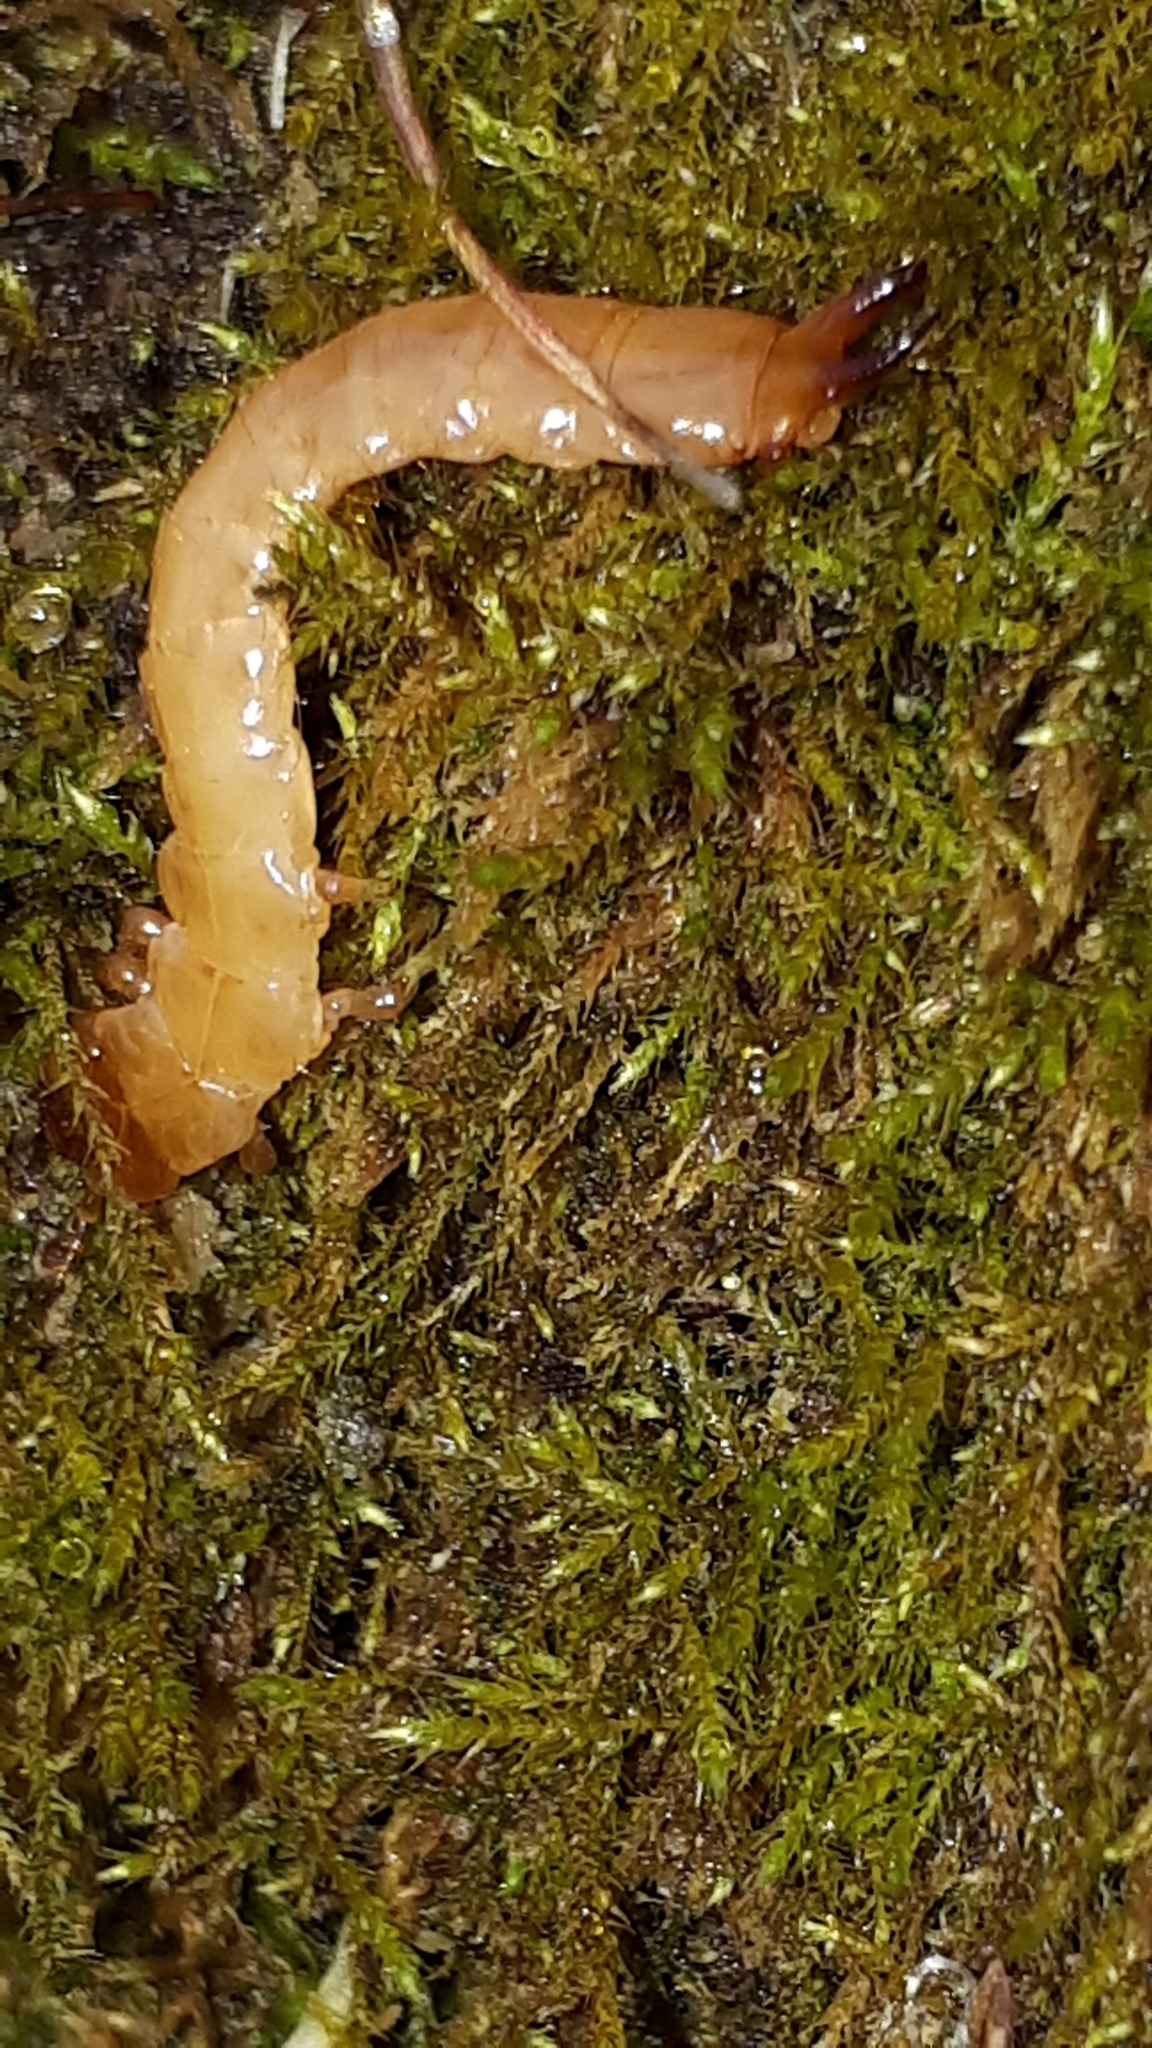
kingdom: Animalia
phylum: Arthropoda
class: Insecta
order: Coleoptera
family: Pyrochroidae
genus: Schizotus
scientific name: Schizotus pectinicornis
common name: Scarce cardinal beetle
